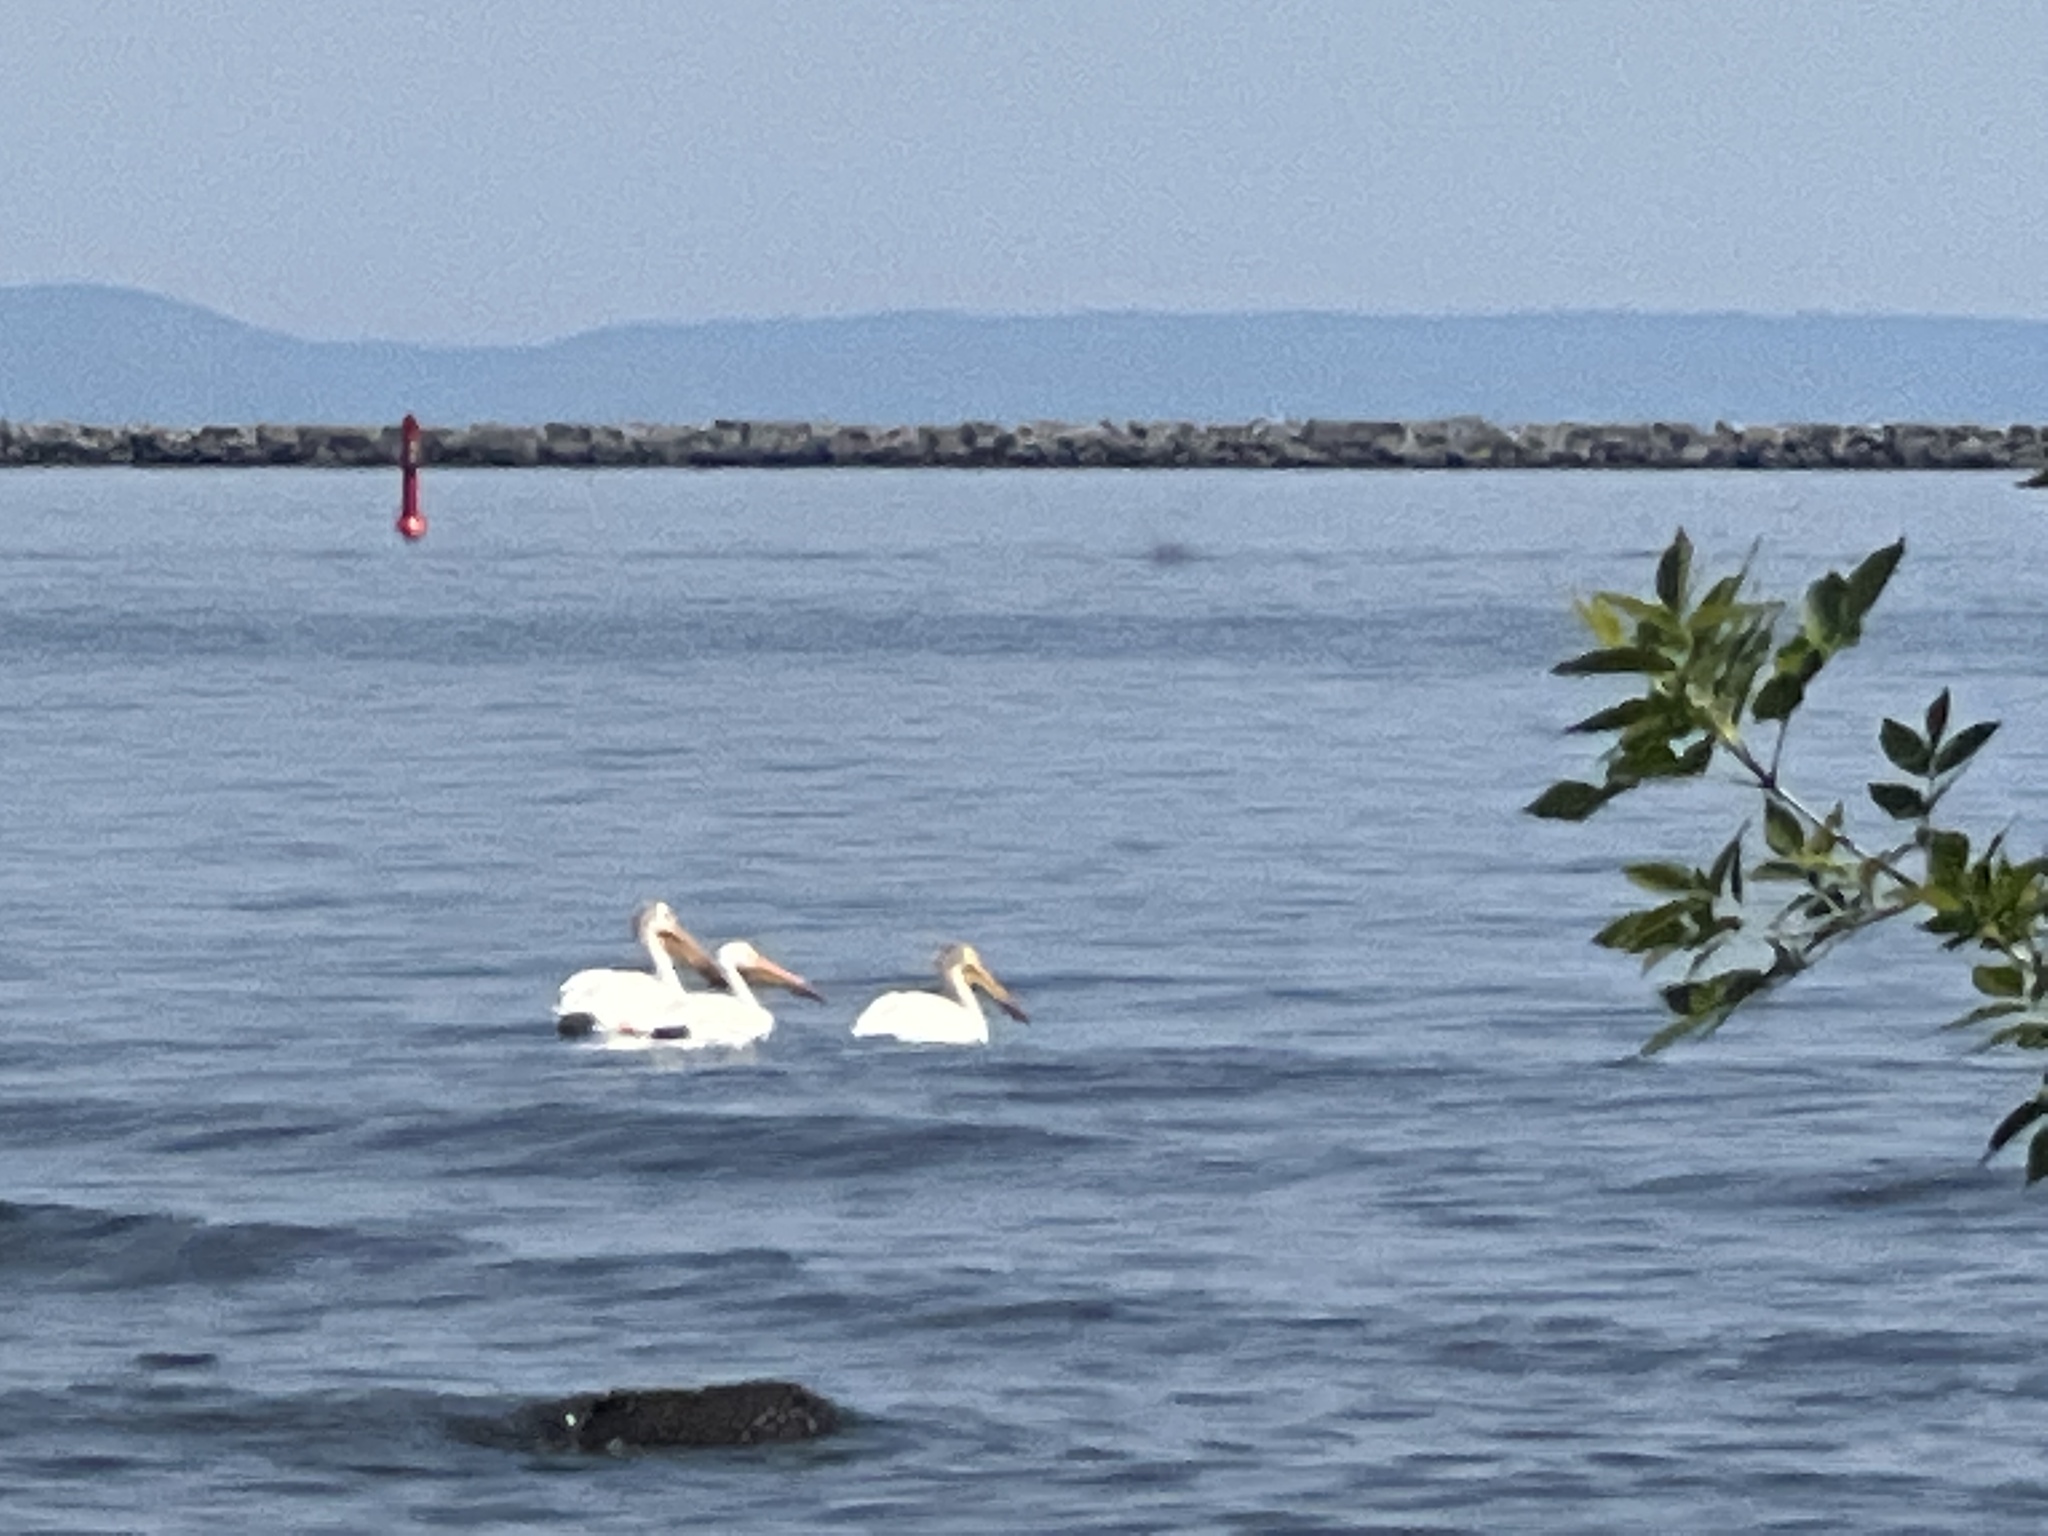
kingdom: Animalia
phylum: Chordata
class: Aves
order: Pelecaniformes
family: Pelecanidae
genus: Pelecanus
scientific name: Pelecanus erythrorhynchos
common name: American white pelican
